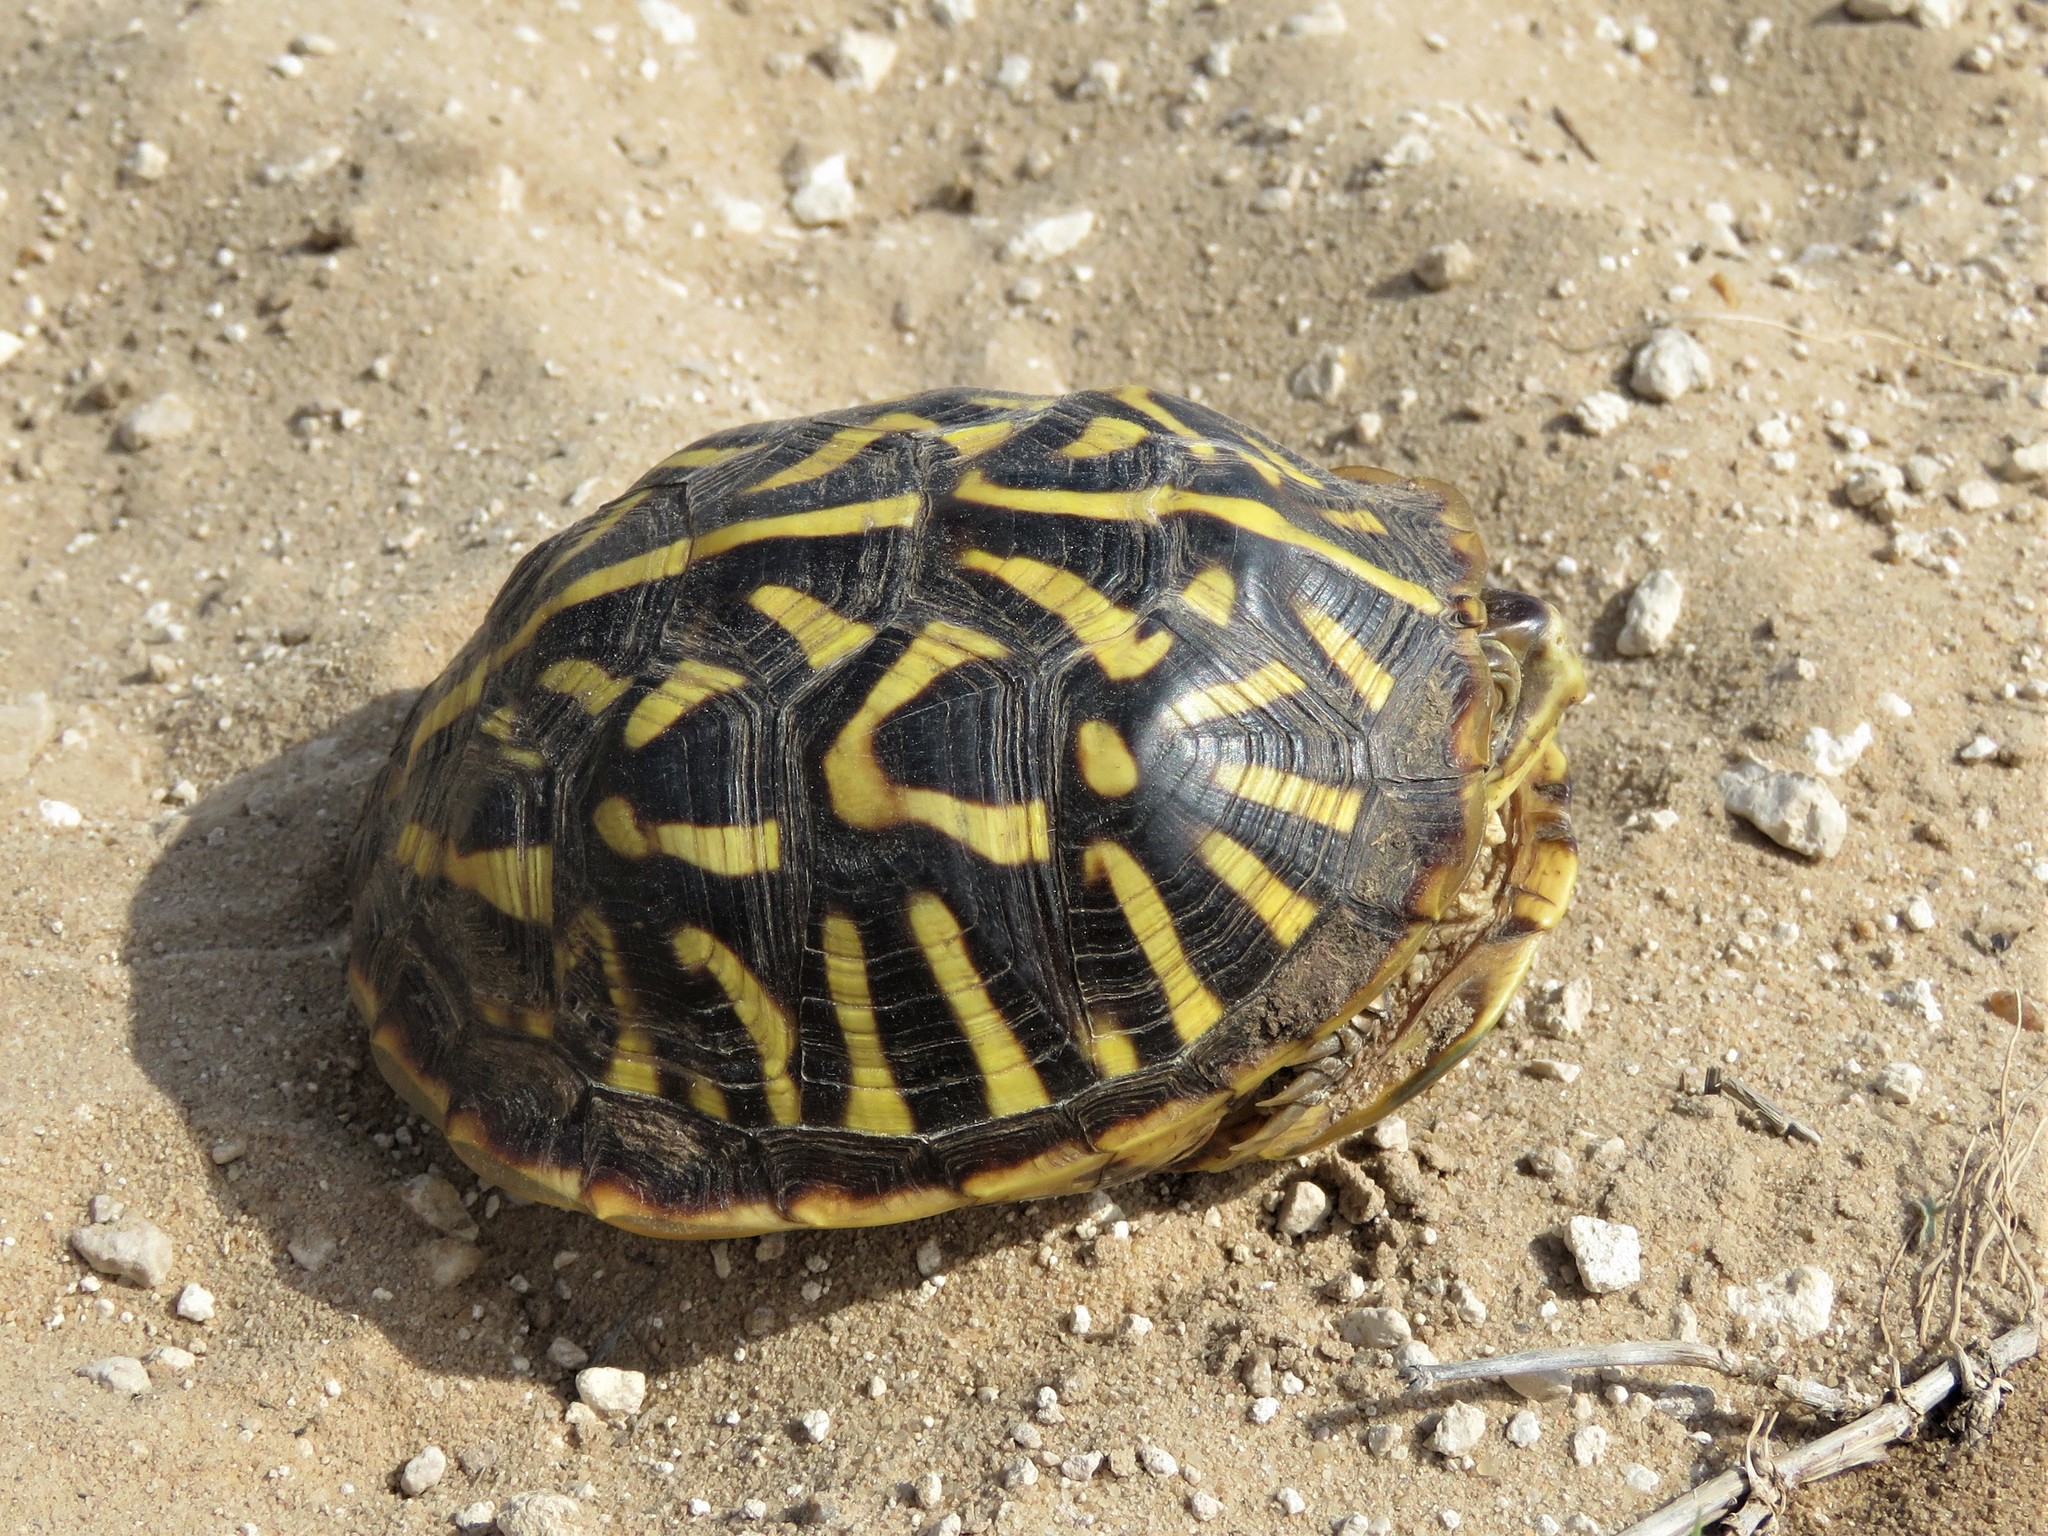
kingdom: Animalia
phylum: Chordata
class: Testudines
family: Emydidae
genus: Terrapene
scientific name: Terrapene ornata
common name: Western box turtle
